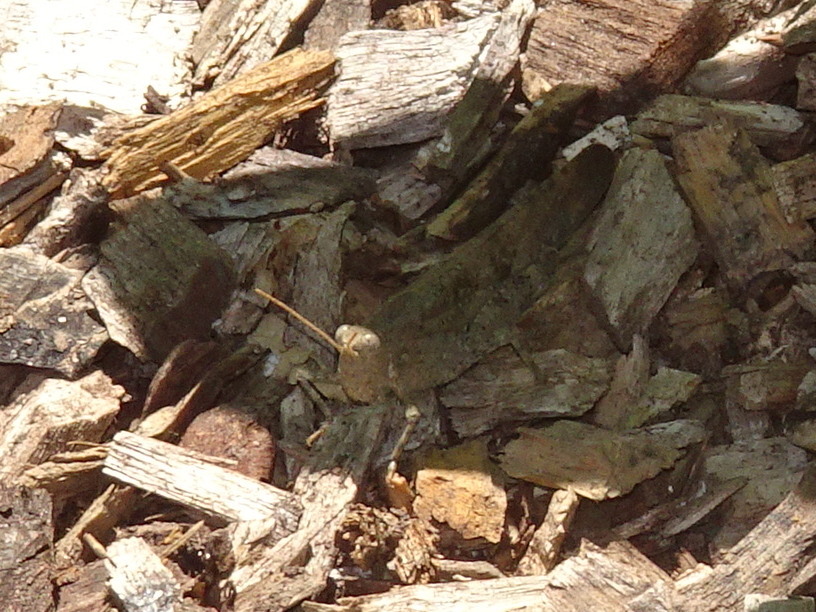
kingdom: Animalia
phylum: Arthropoda
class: Insecta
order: Orthoptera
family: Acrididae
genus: Dissosteira
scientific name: Dissosteira carolina
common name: Carolina grasshopper
